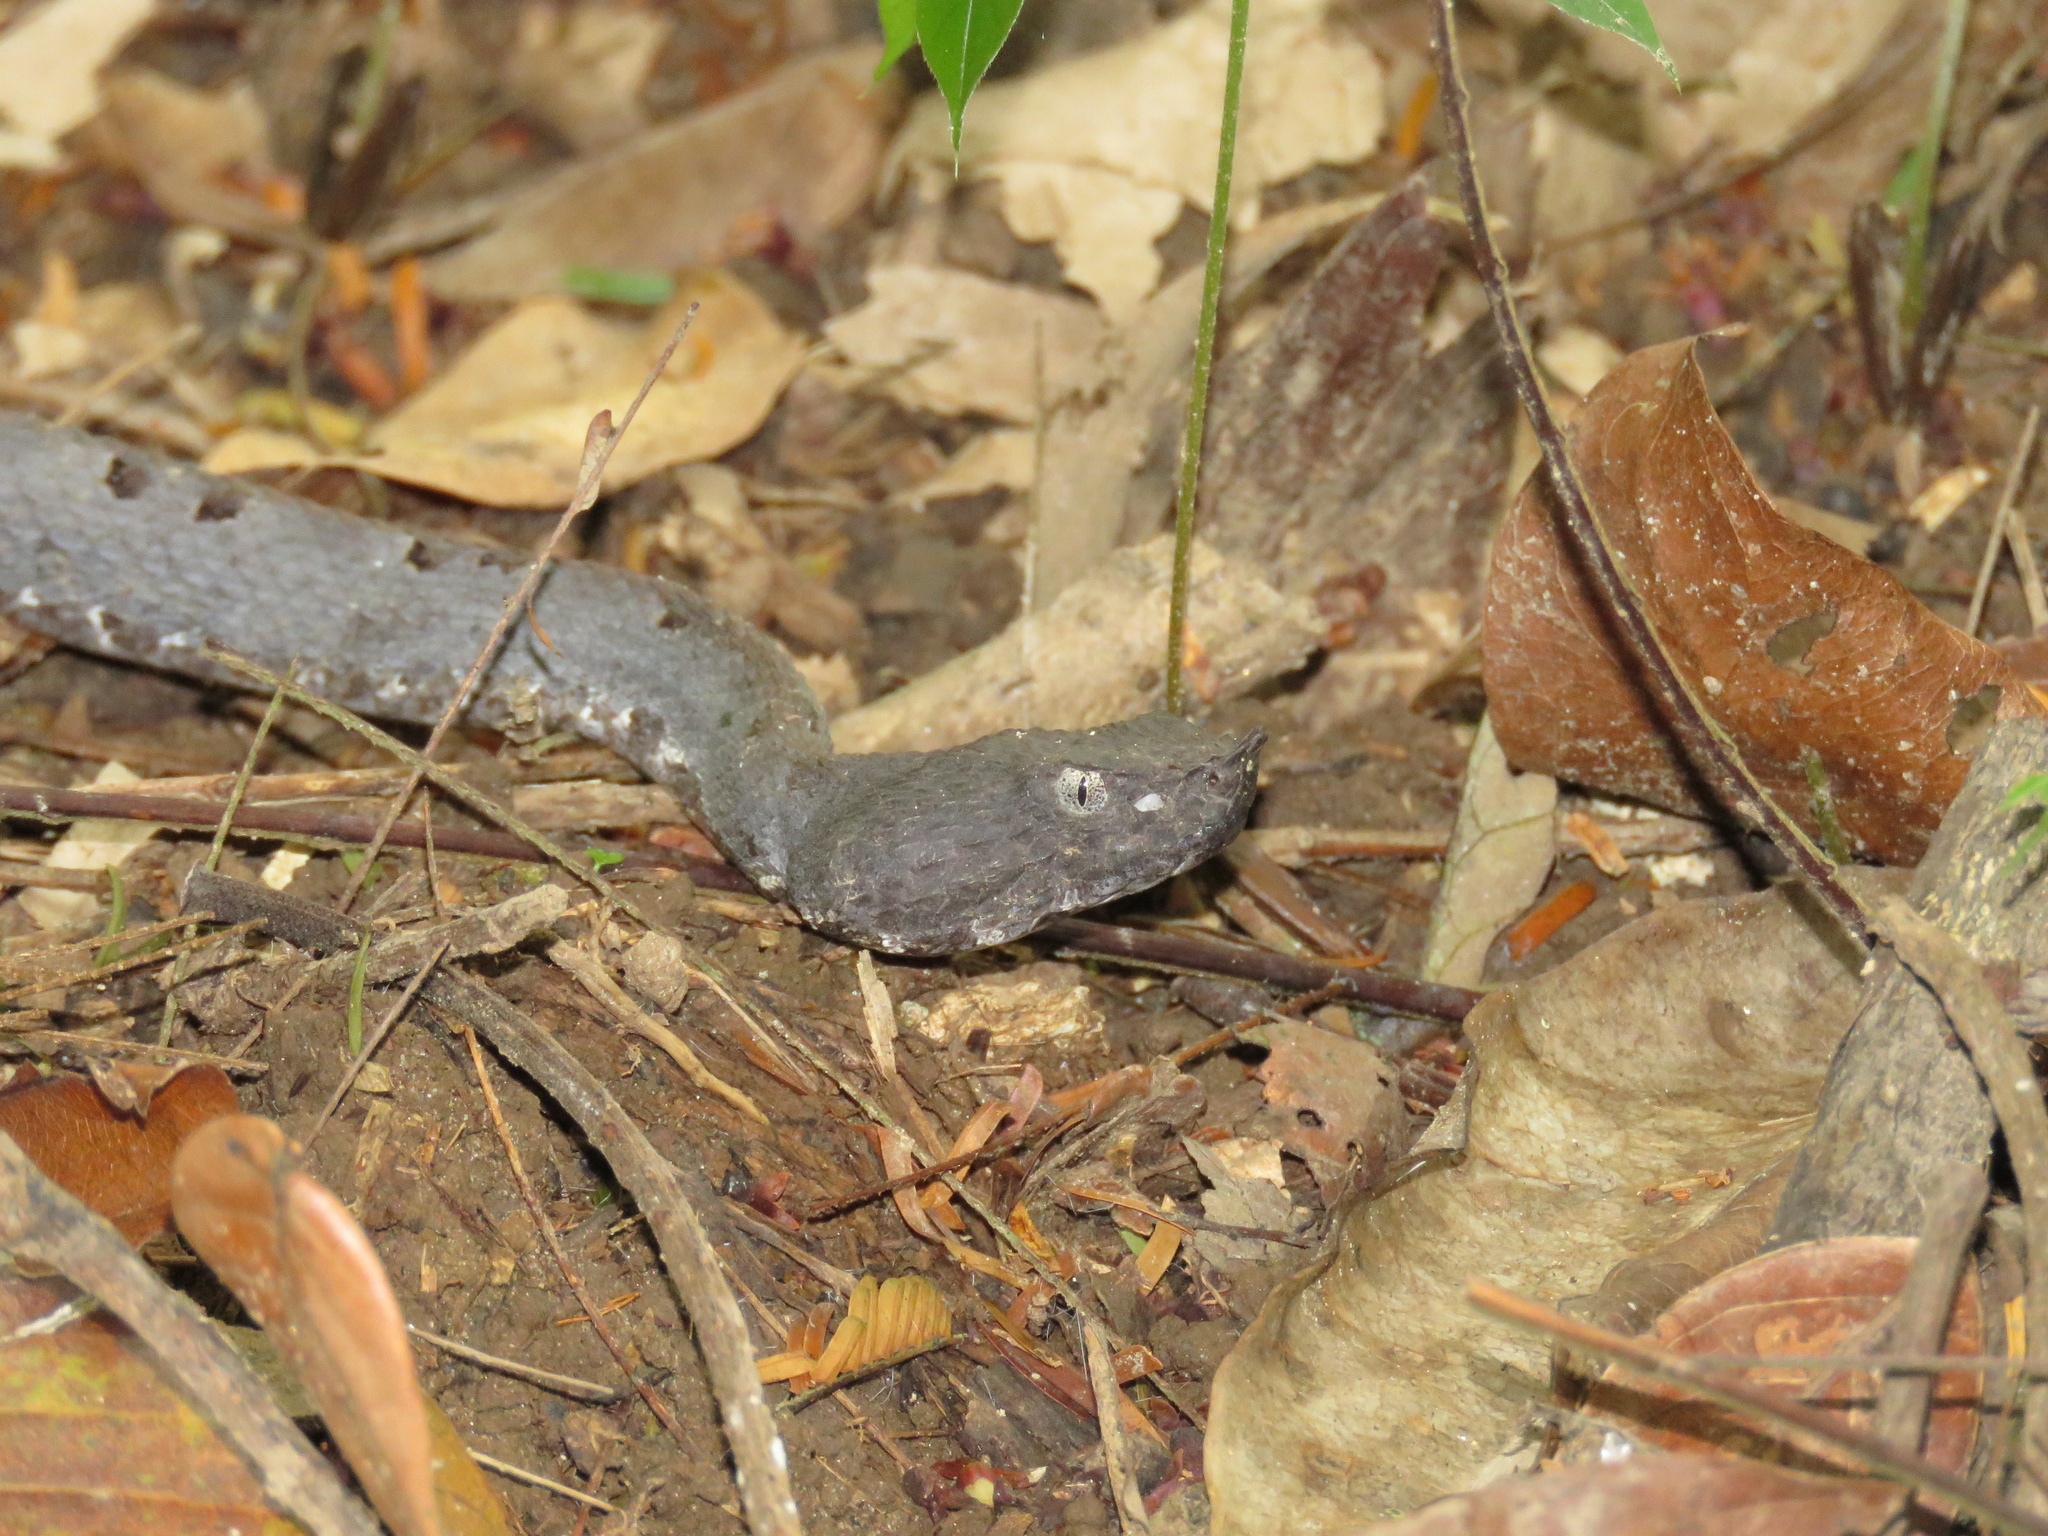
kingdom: Animalia
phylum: Chordata
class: Squamata
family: Viperidae
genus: Porthidium
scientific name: Porthidium nasutum
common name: Hognosed pit viper
